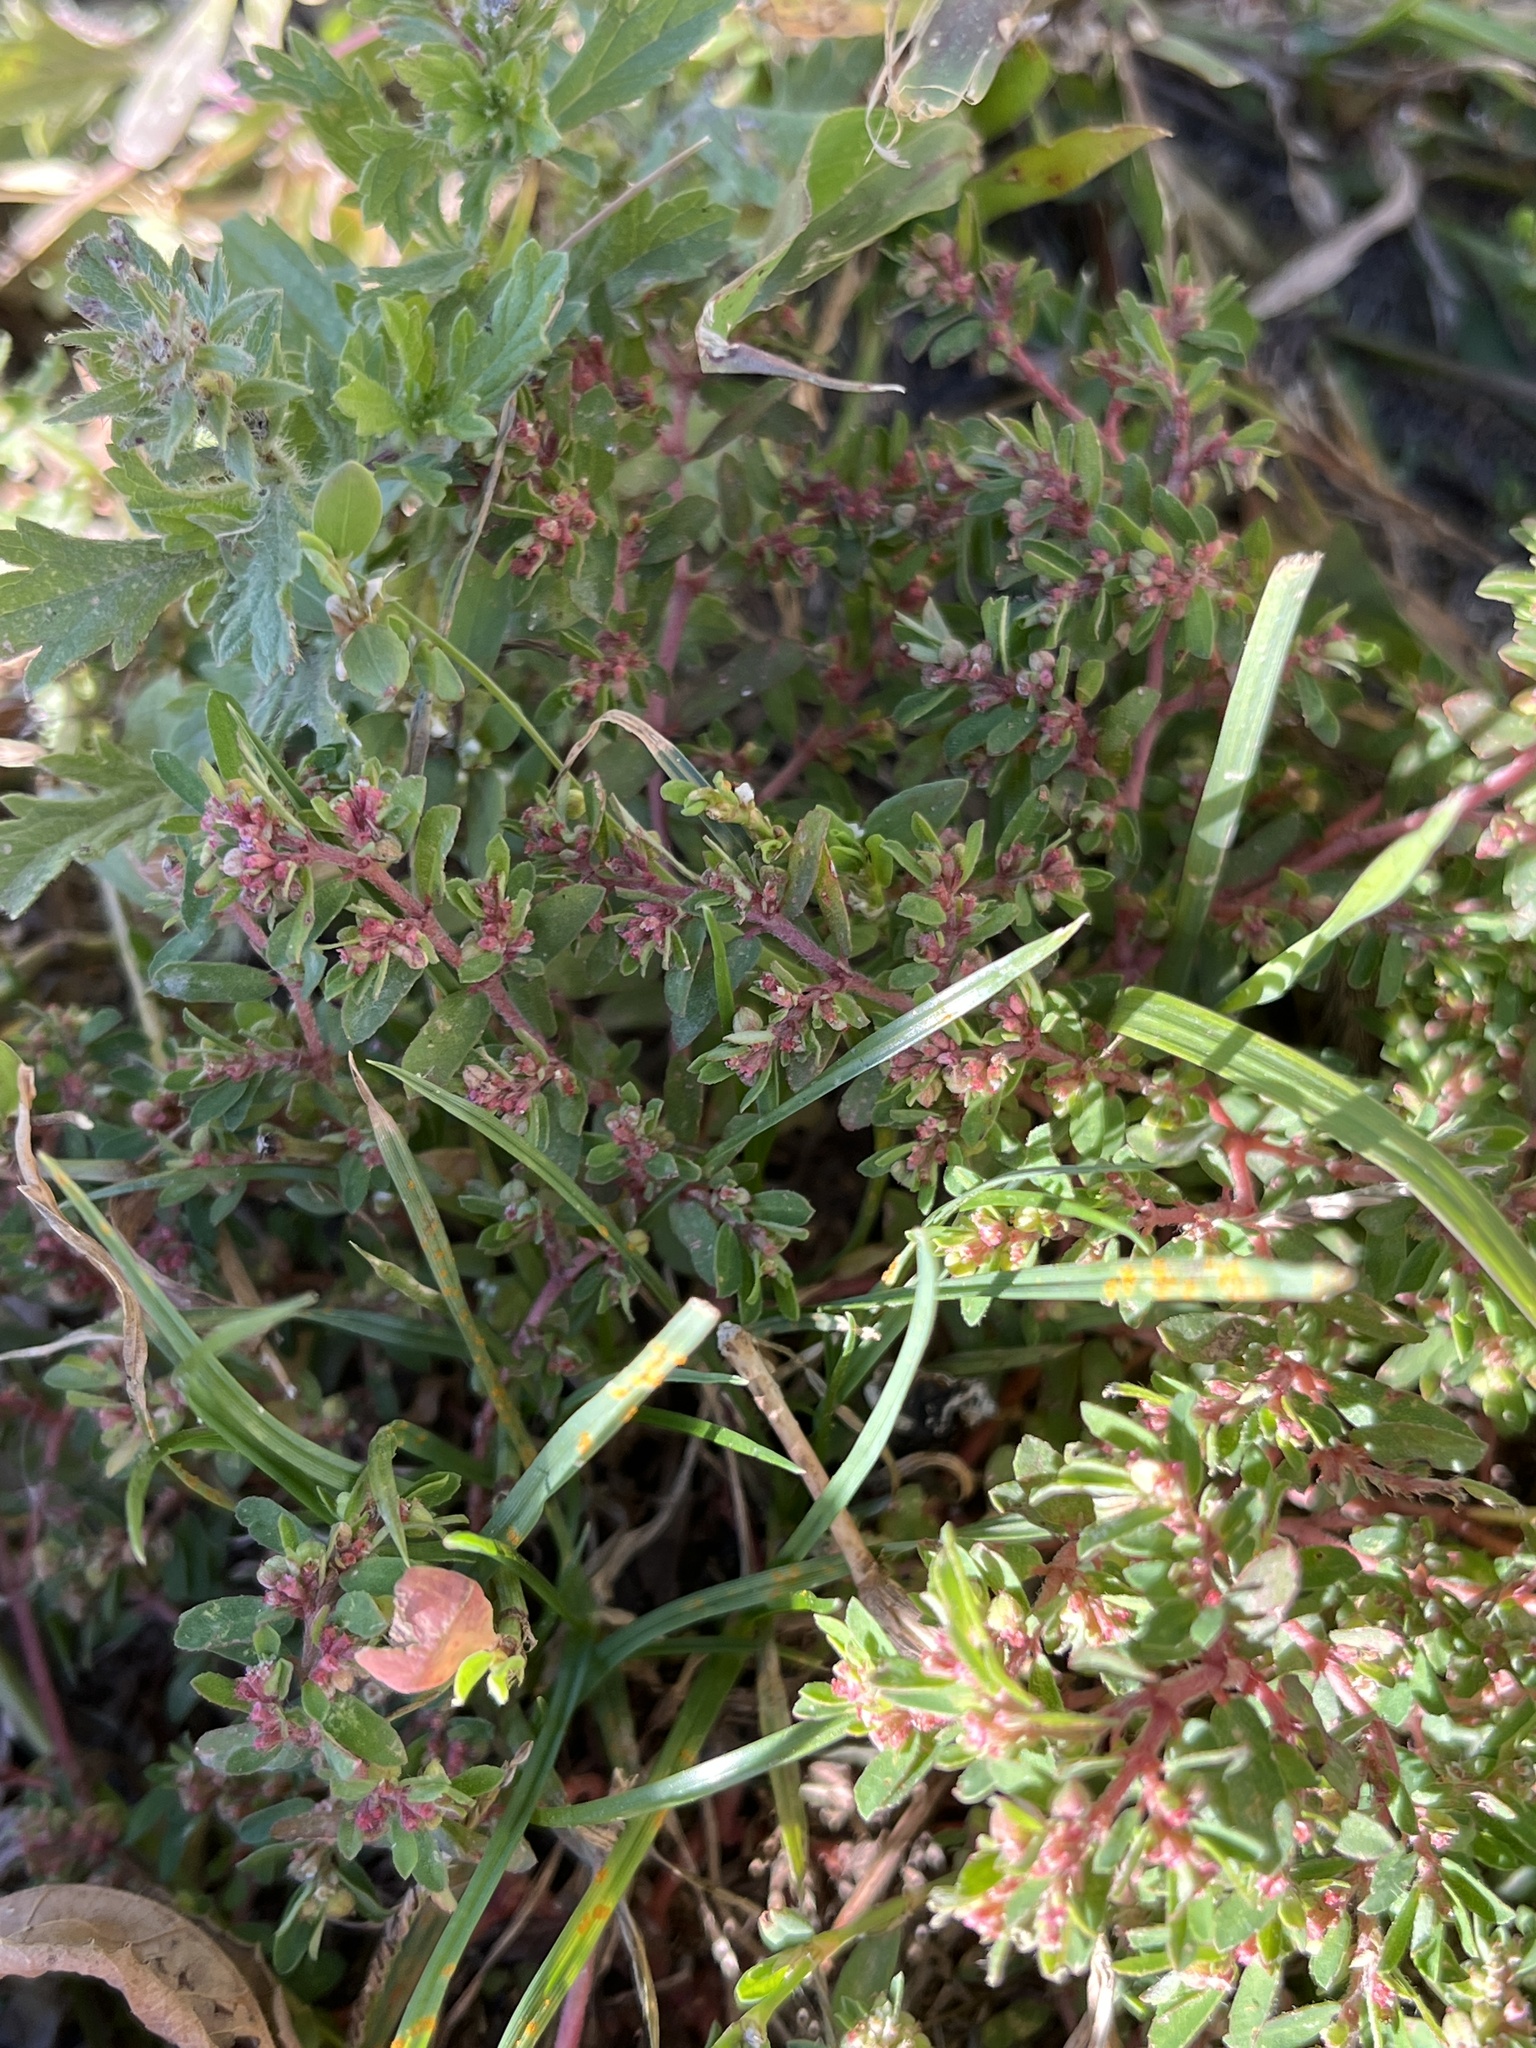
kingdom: Plantae
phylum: Tracheophyta
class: Magnoliopsida
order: Malpighiales
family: Euphorbiaceae
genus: Euphorbia
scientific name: Euphorbia maculata
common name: Spotted spurge
